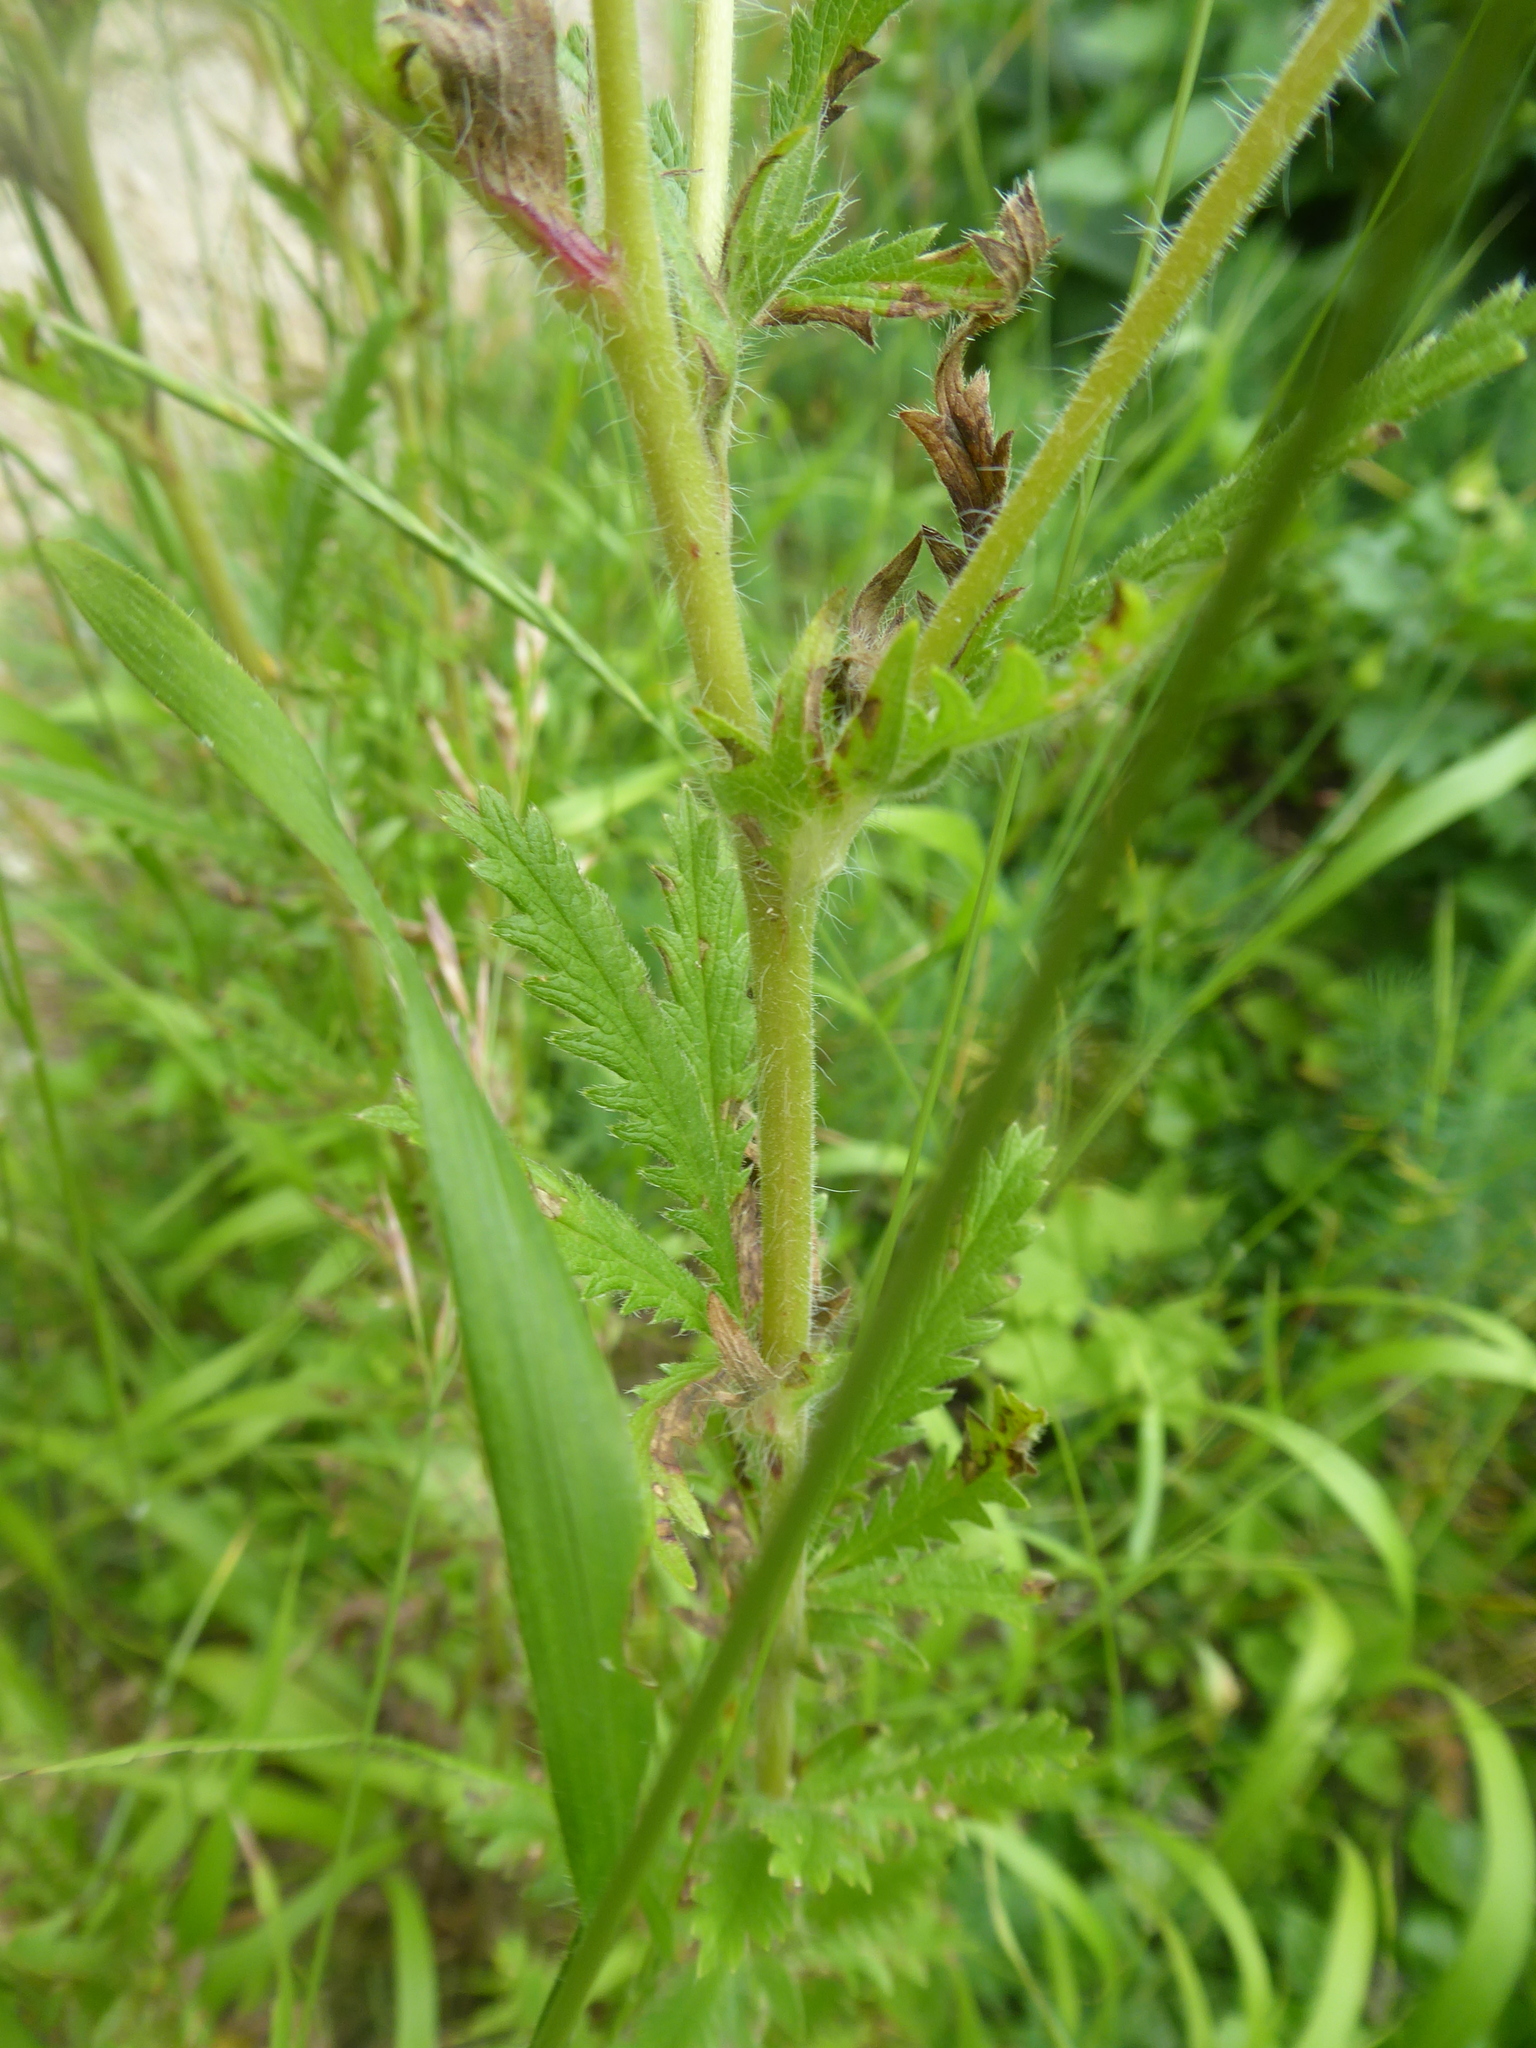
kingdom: Plantae
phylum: Tracheophyta
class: Magnoliopsida
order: Rosales
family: Rosaceae
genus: Potentilla
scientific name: Potentilla recta
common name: Sulphur cinquefoil
